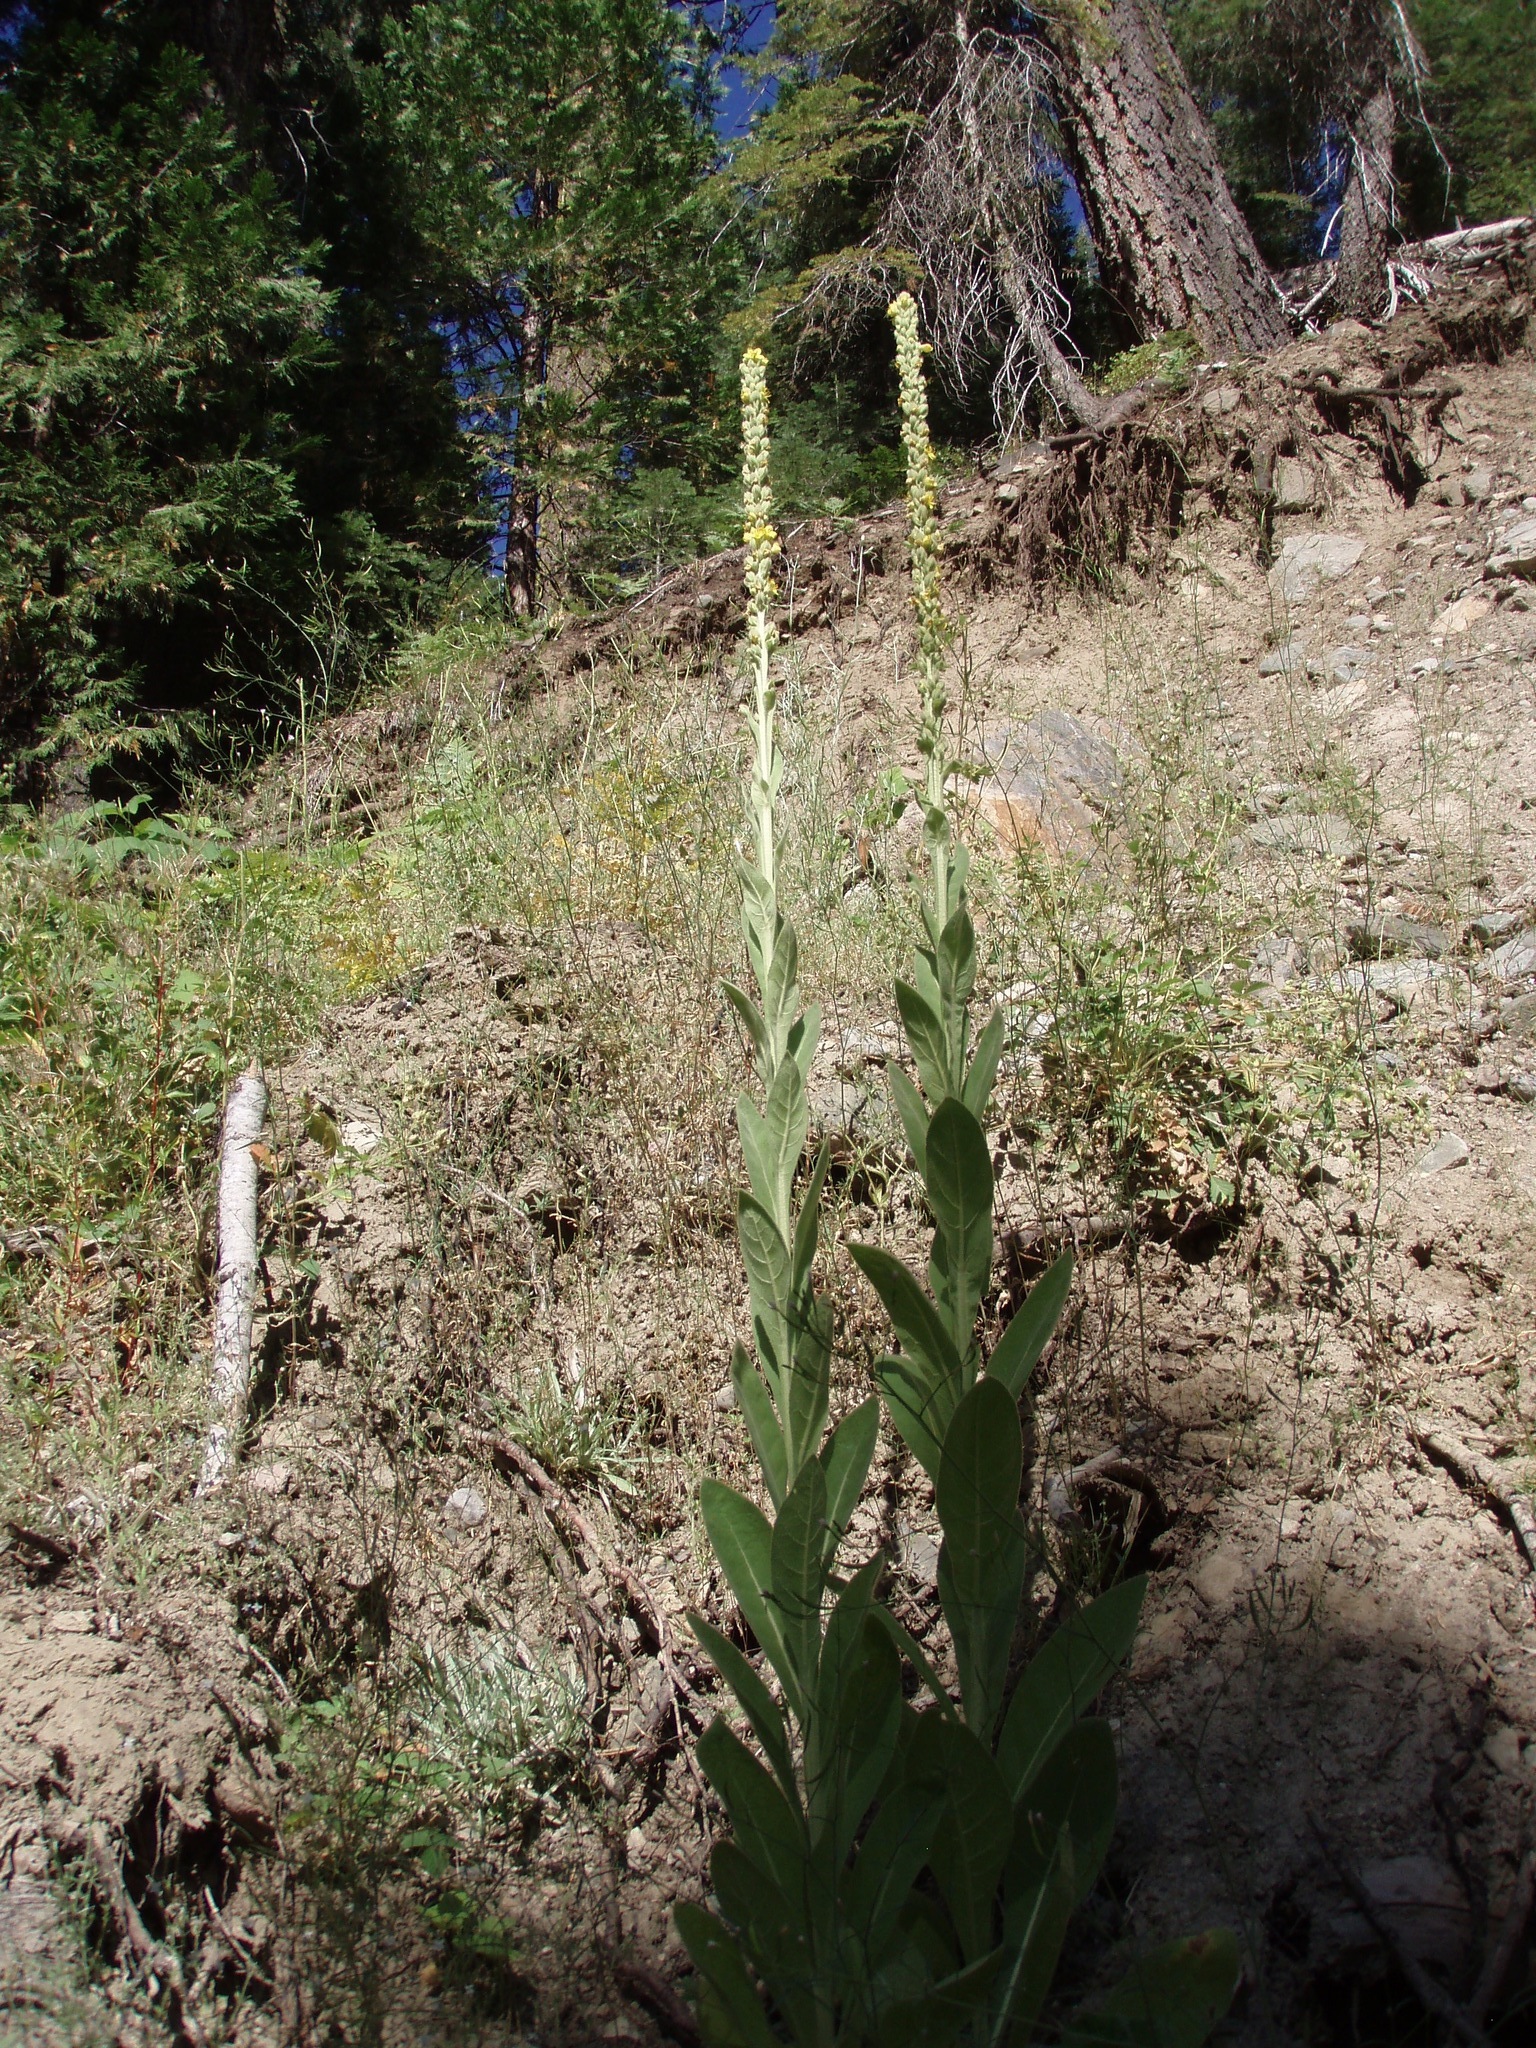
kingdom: Plantae
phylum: Tracheophyta
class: Magnoliopsida
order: Lamiales
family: Scrophulariaceae
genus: Verbascum
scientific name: Verbascum thapsus
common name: Common mullein
